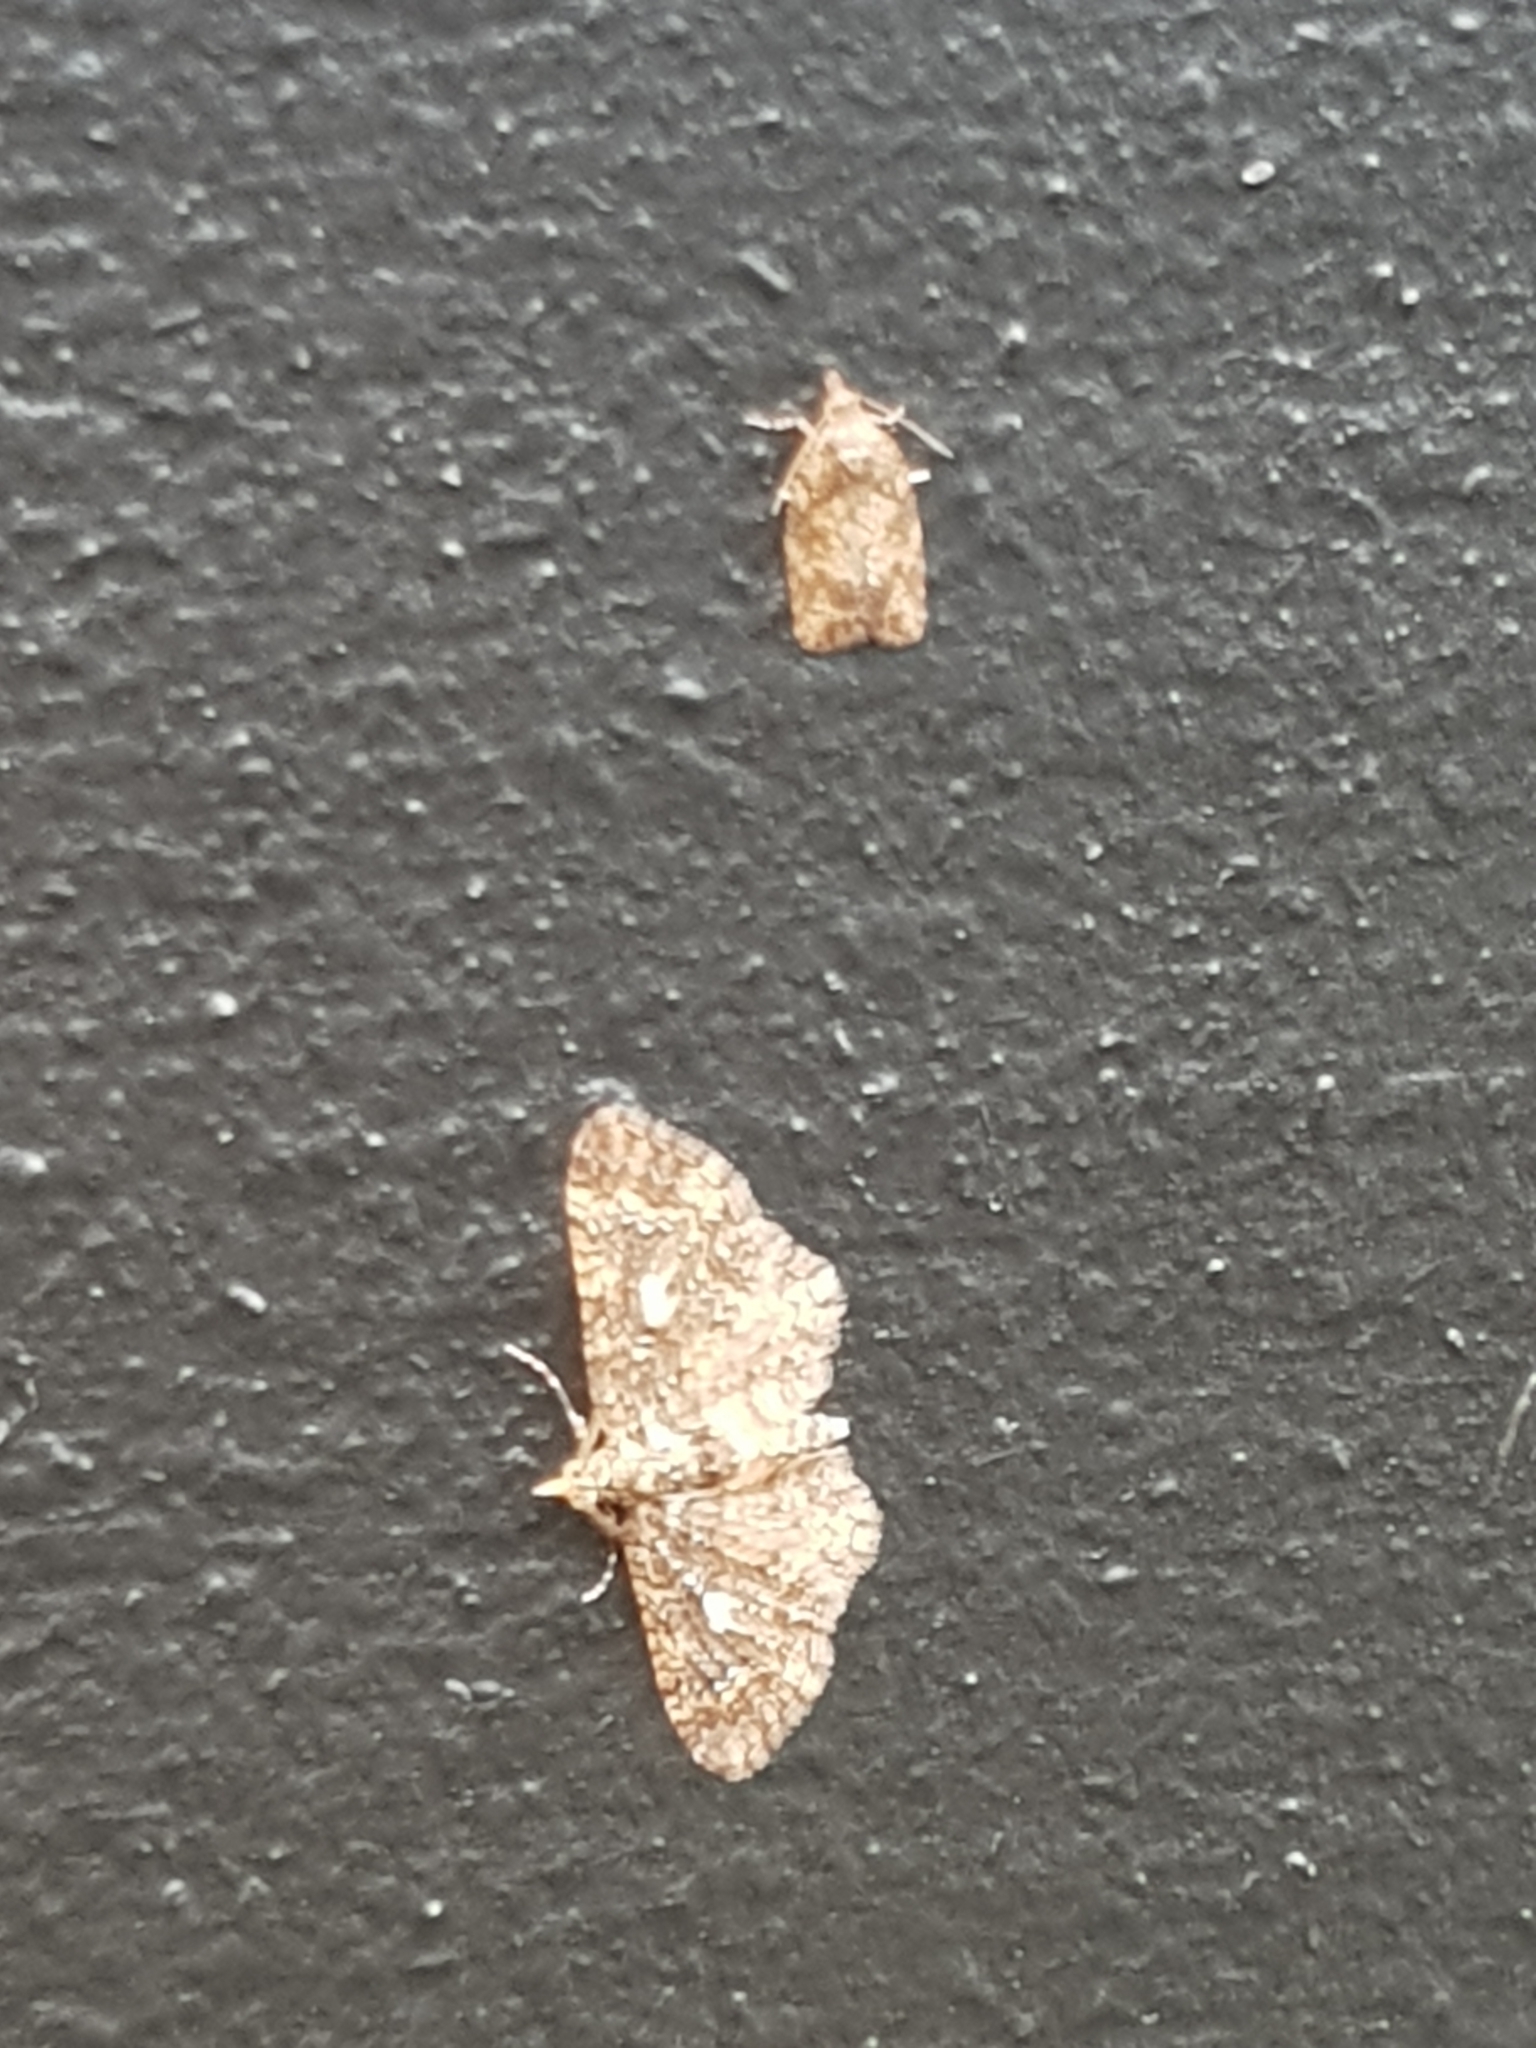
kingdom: Animalia
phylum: Arthropoda
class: Insecta
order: Lepidoptera
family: Tortricidae
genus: Capua
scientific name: Capua intractana
